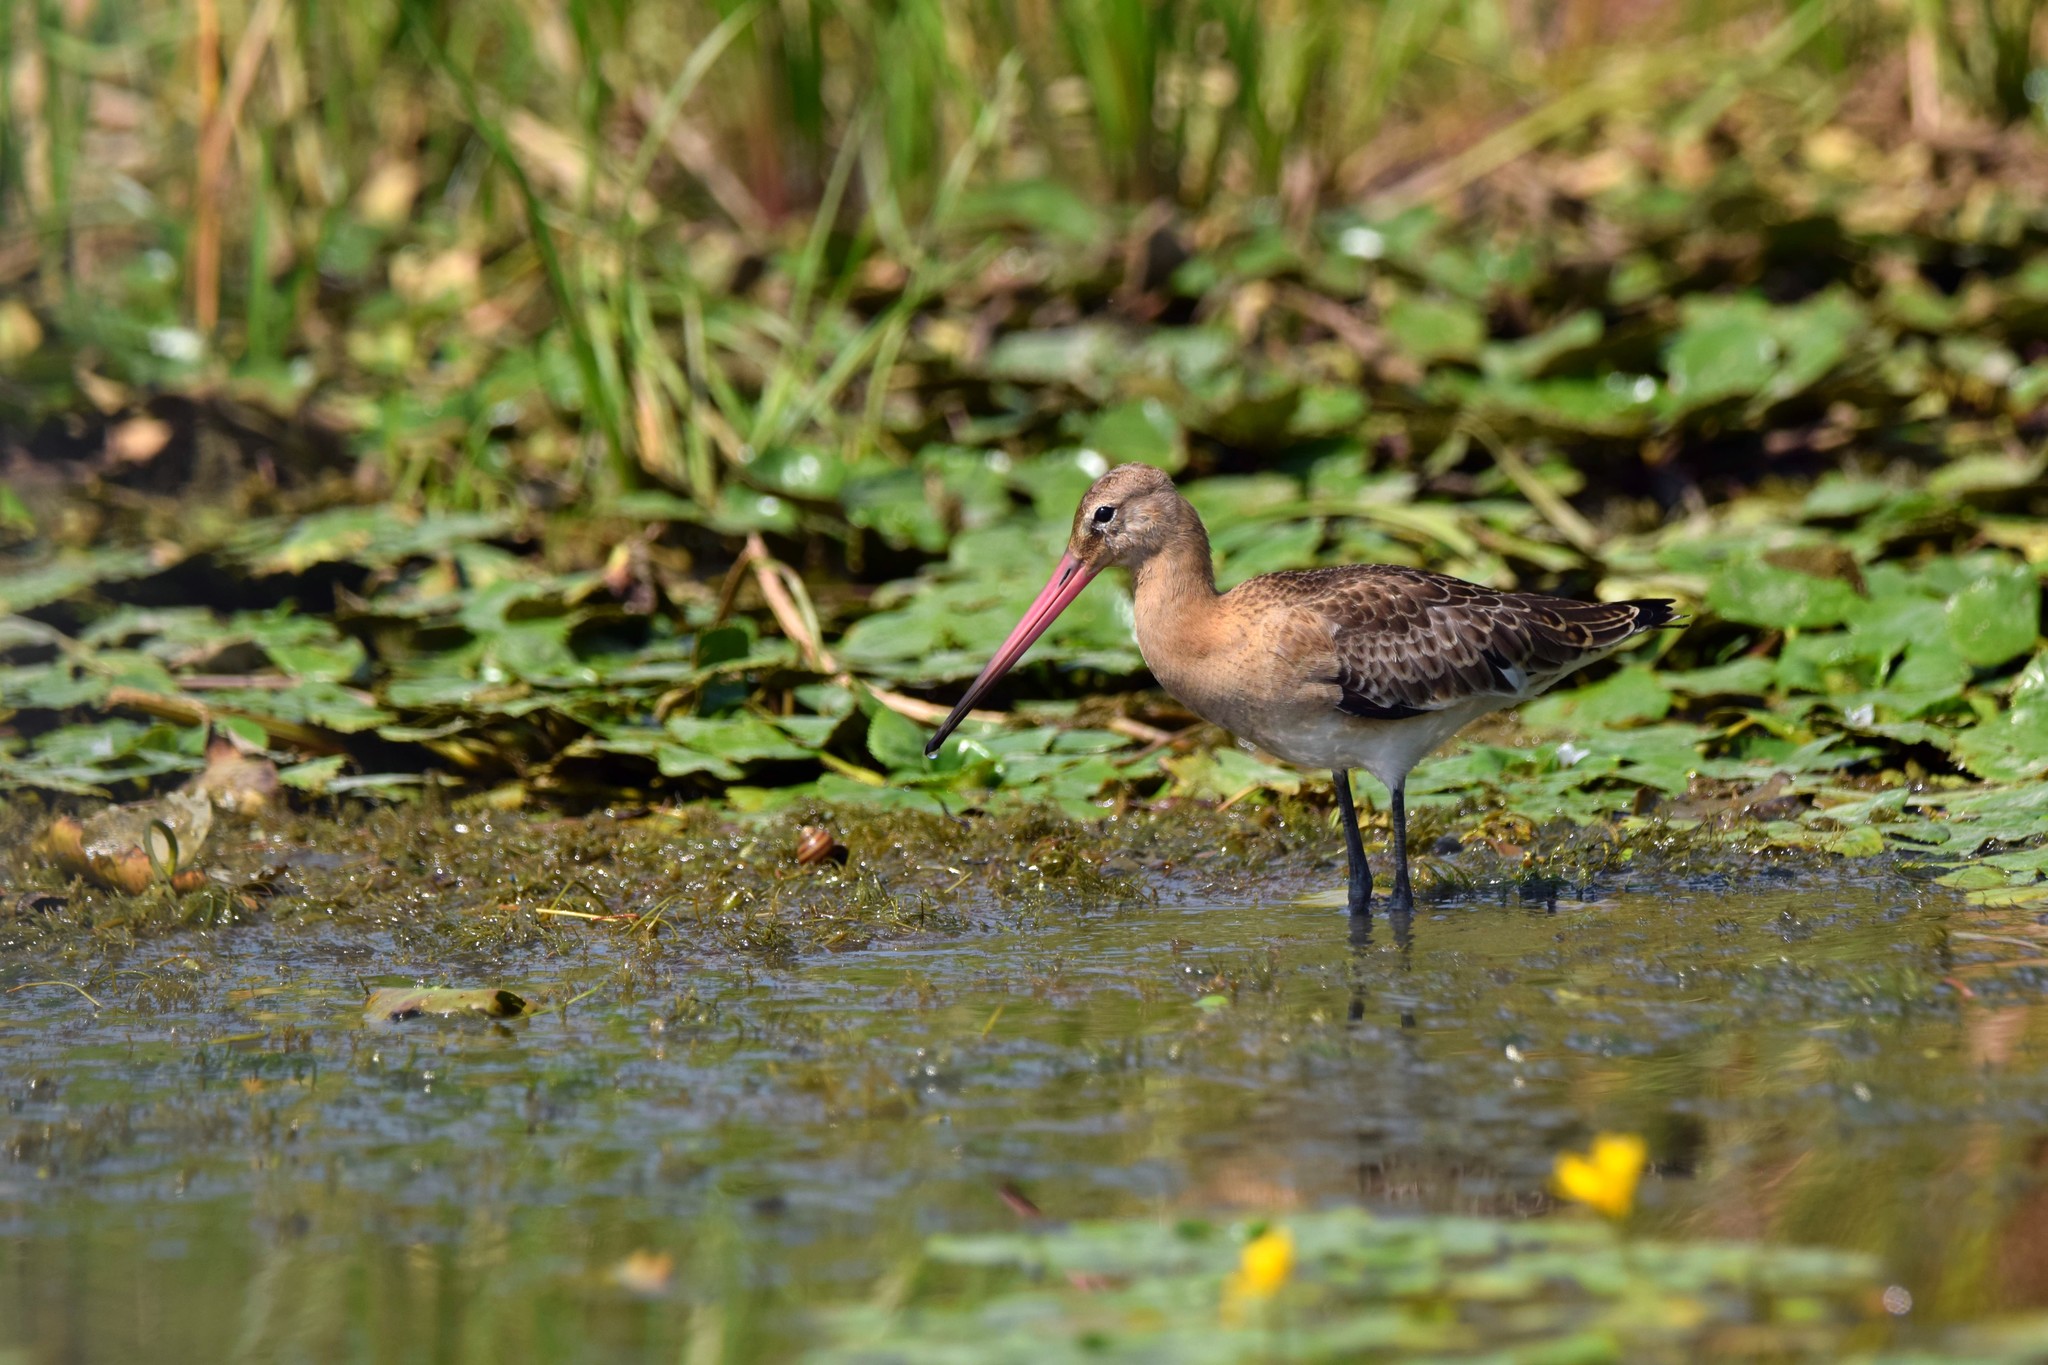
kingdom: Animalia
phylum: Chordata
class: Aves
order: Charadriiformes
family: Scolopacidae
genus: Limosa
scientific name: Limosa limosa
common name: Black-tailed godwit
